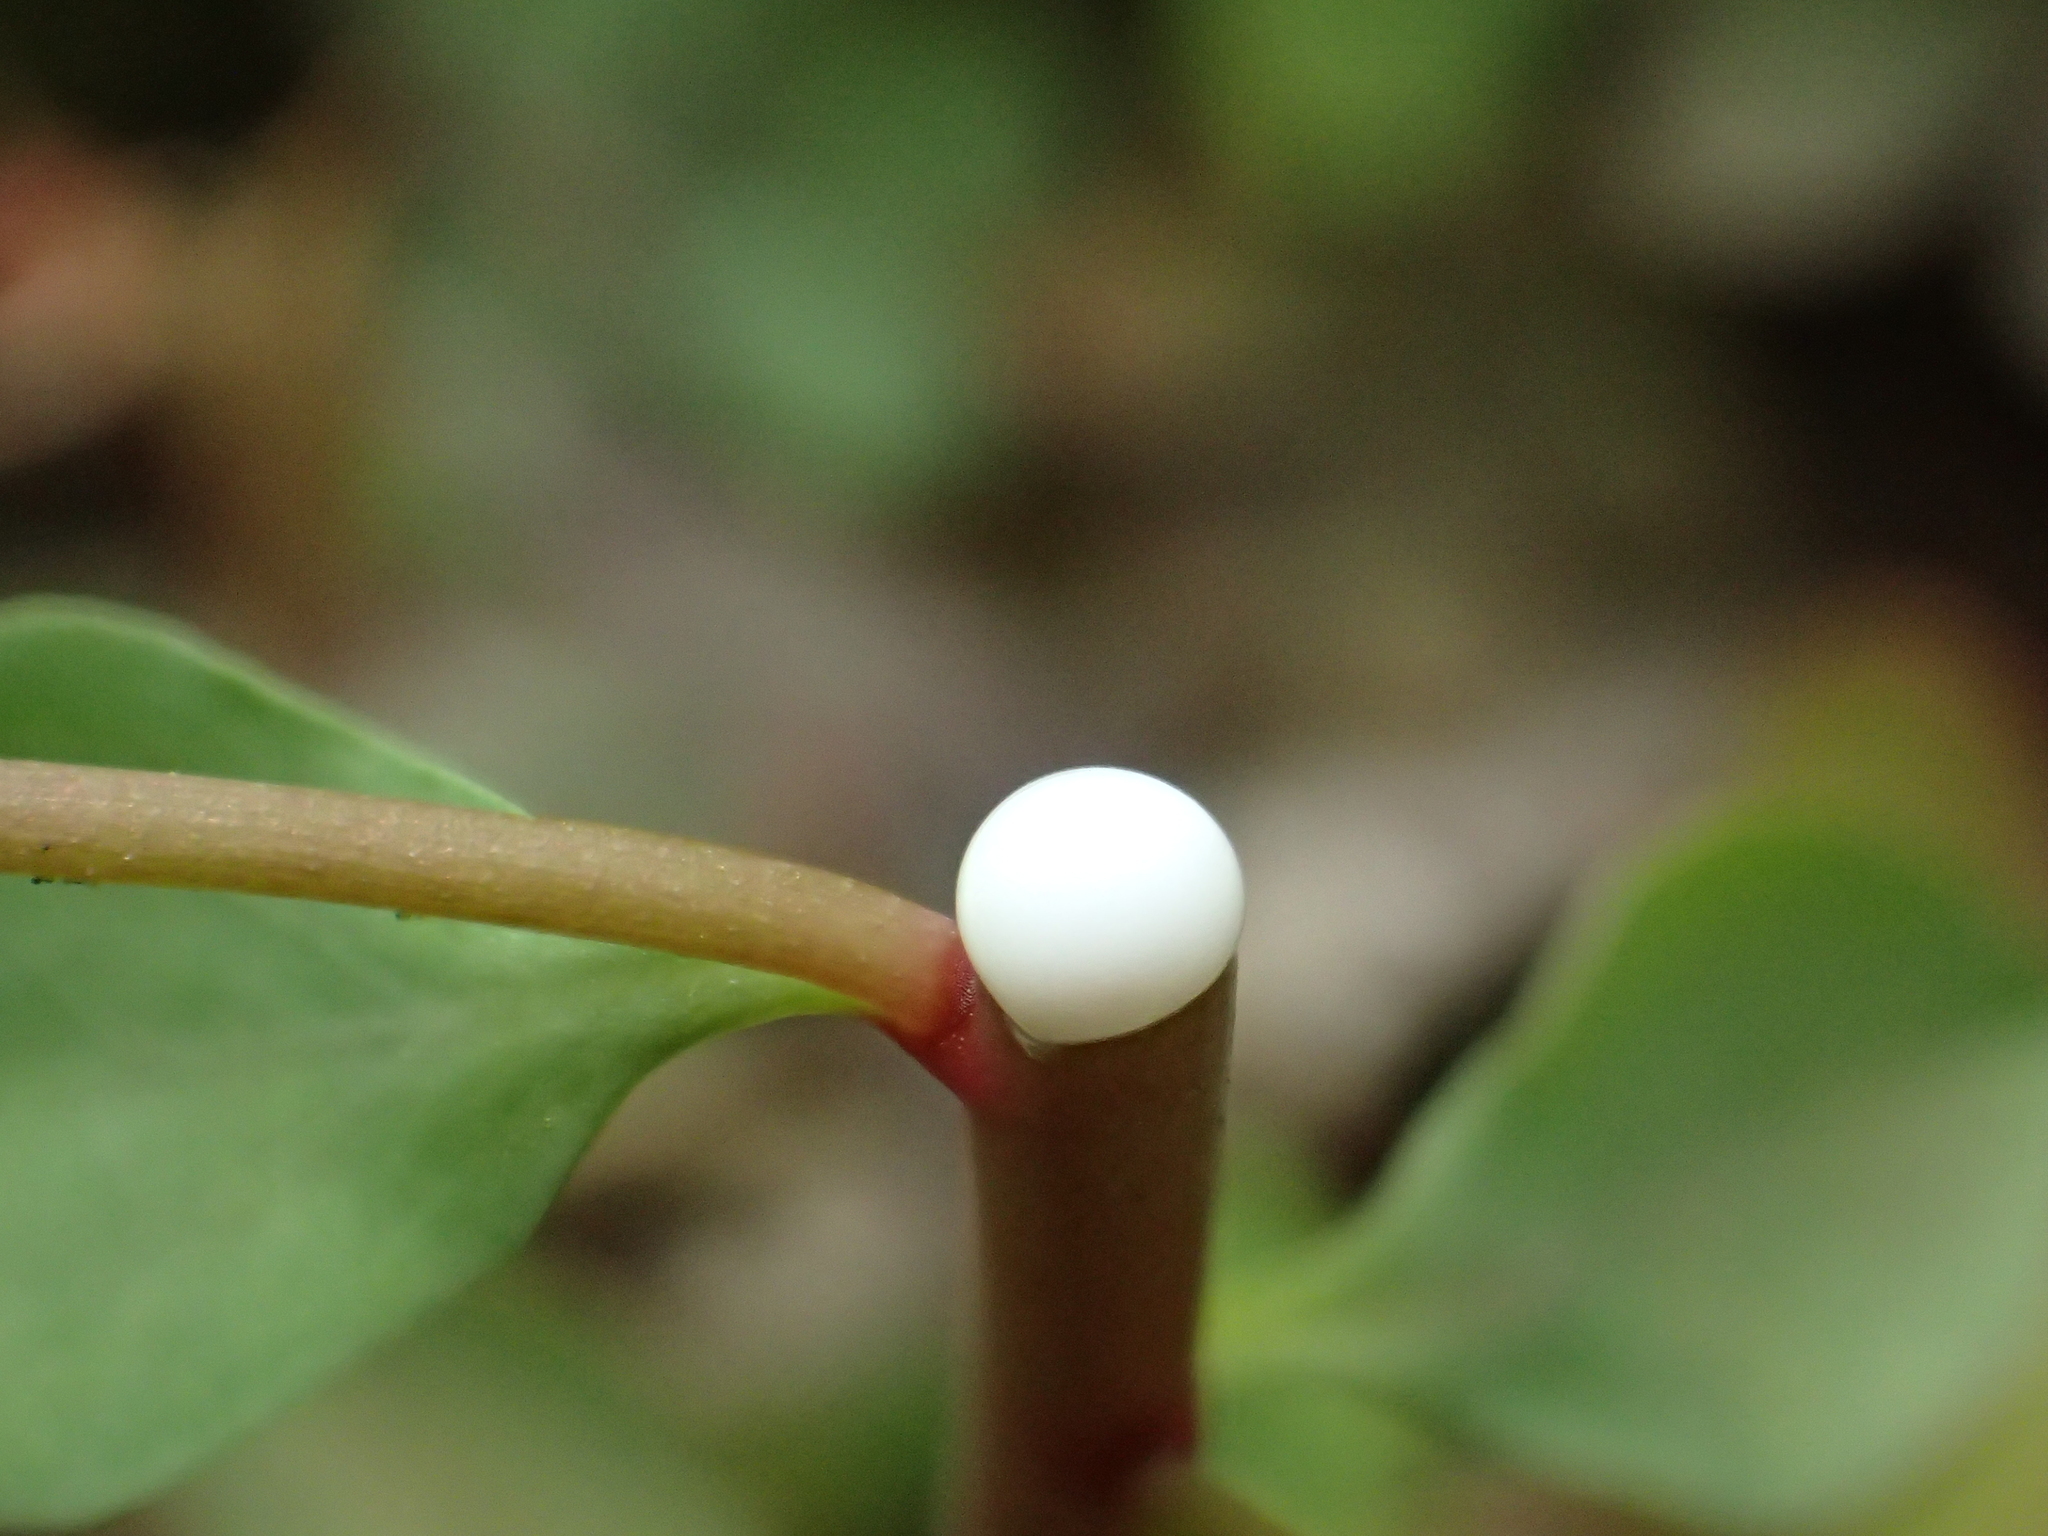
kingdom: Plantae
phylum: Tracheophyta
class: Magnoliopsida
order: Malpighiales
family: Euphorbiaceae
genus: Euphorbia
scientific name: Euphorbia peplus
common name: Petty spurge
